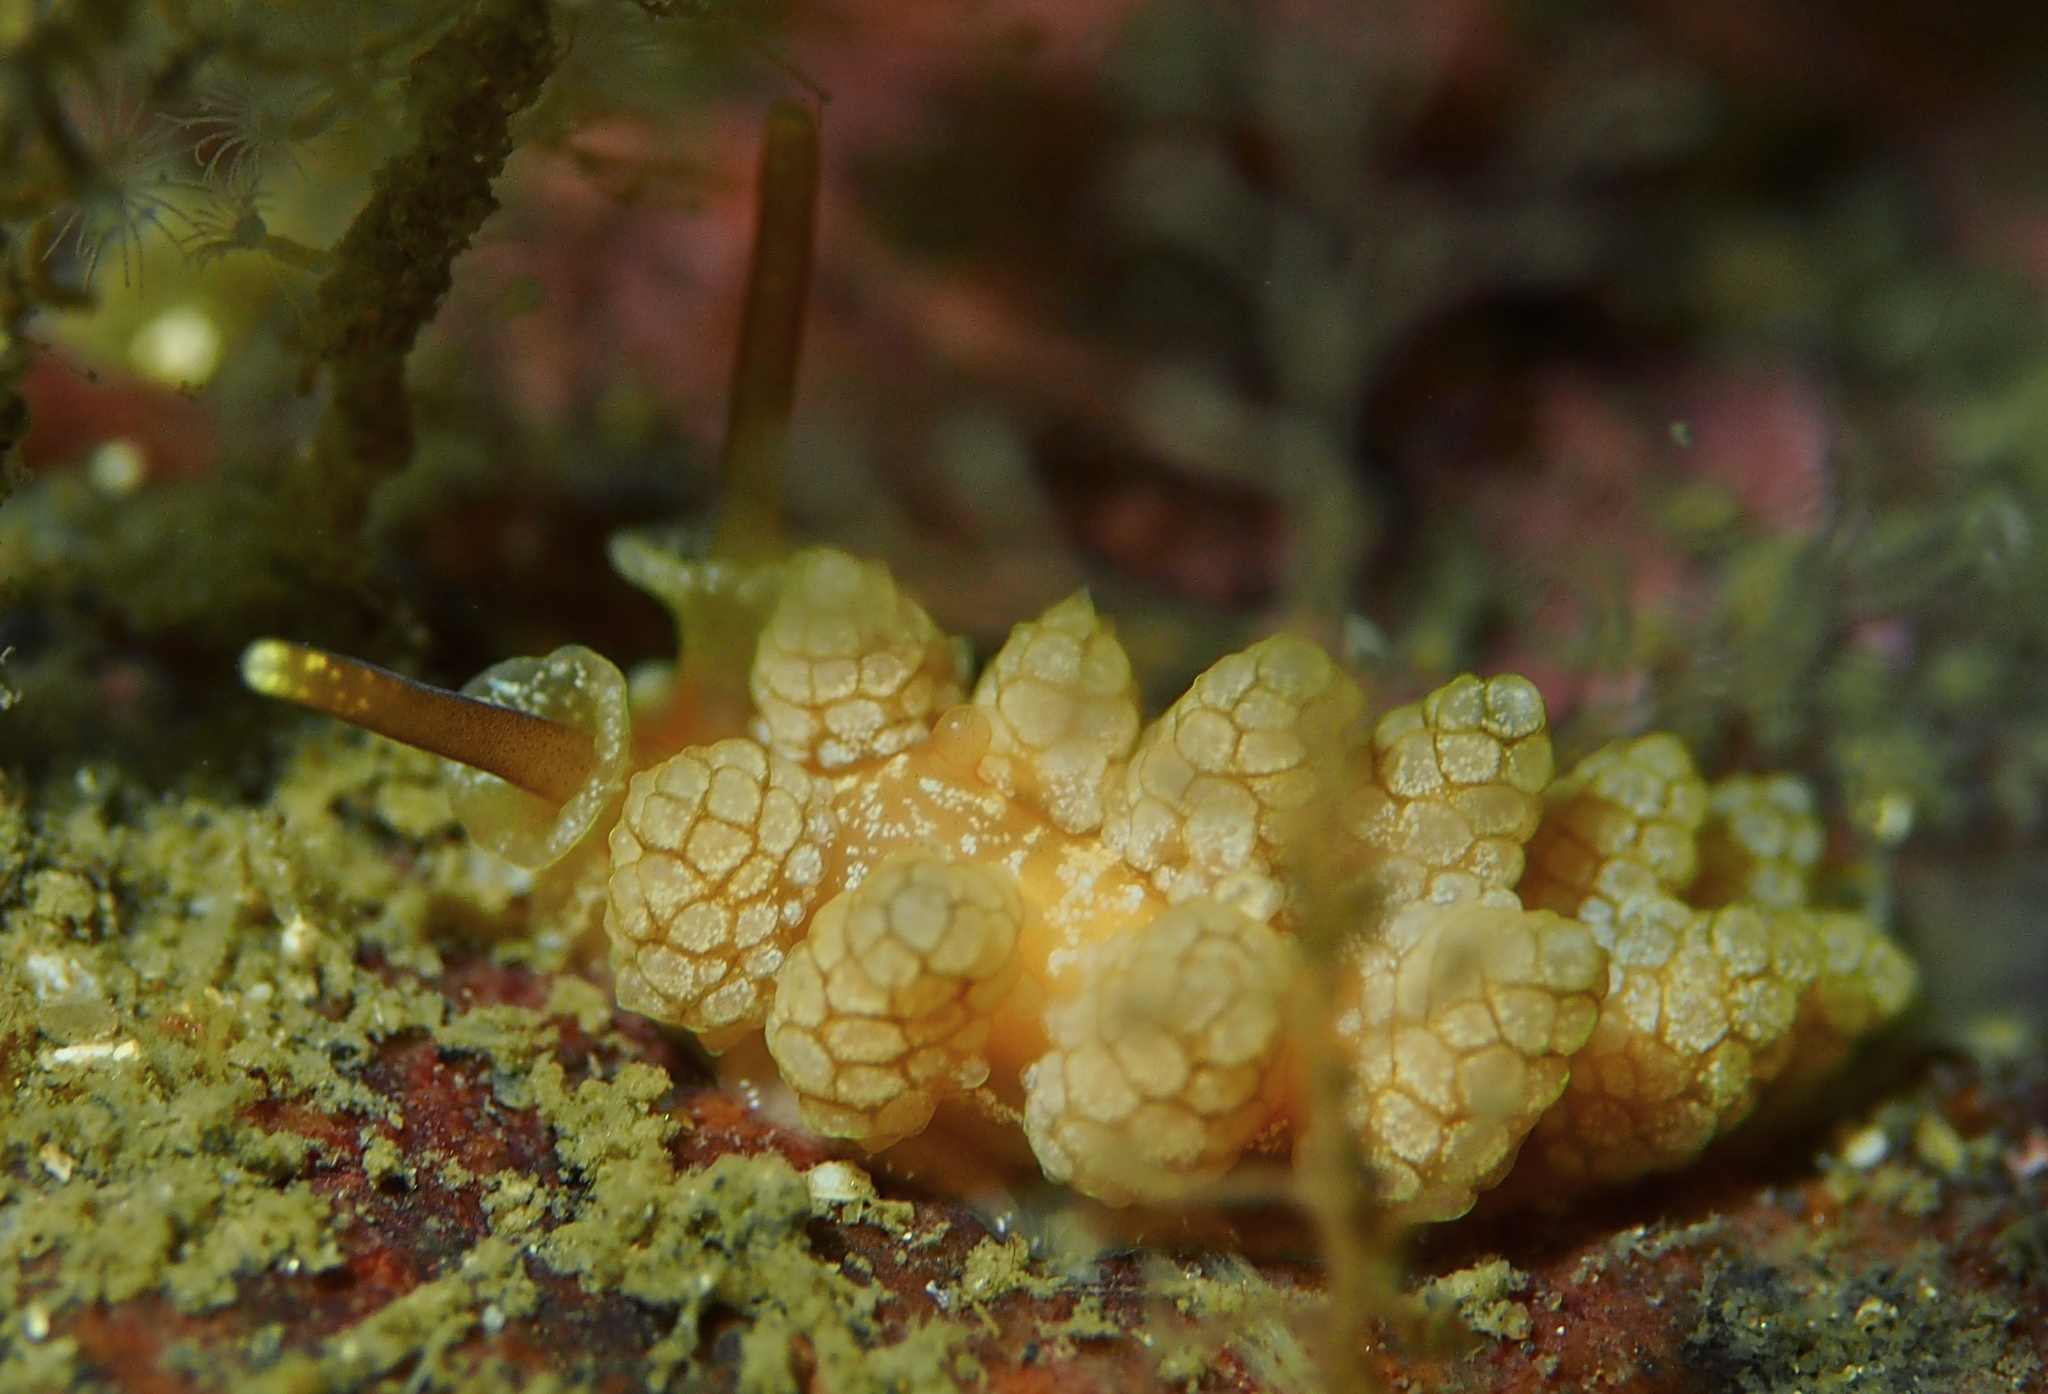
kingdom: Animalia
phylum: Mollusca
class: Gastropoda
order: Nudibranchia
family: Dotidae
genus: Doto
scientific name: Doto fragilis
